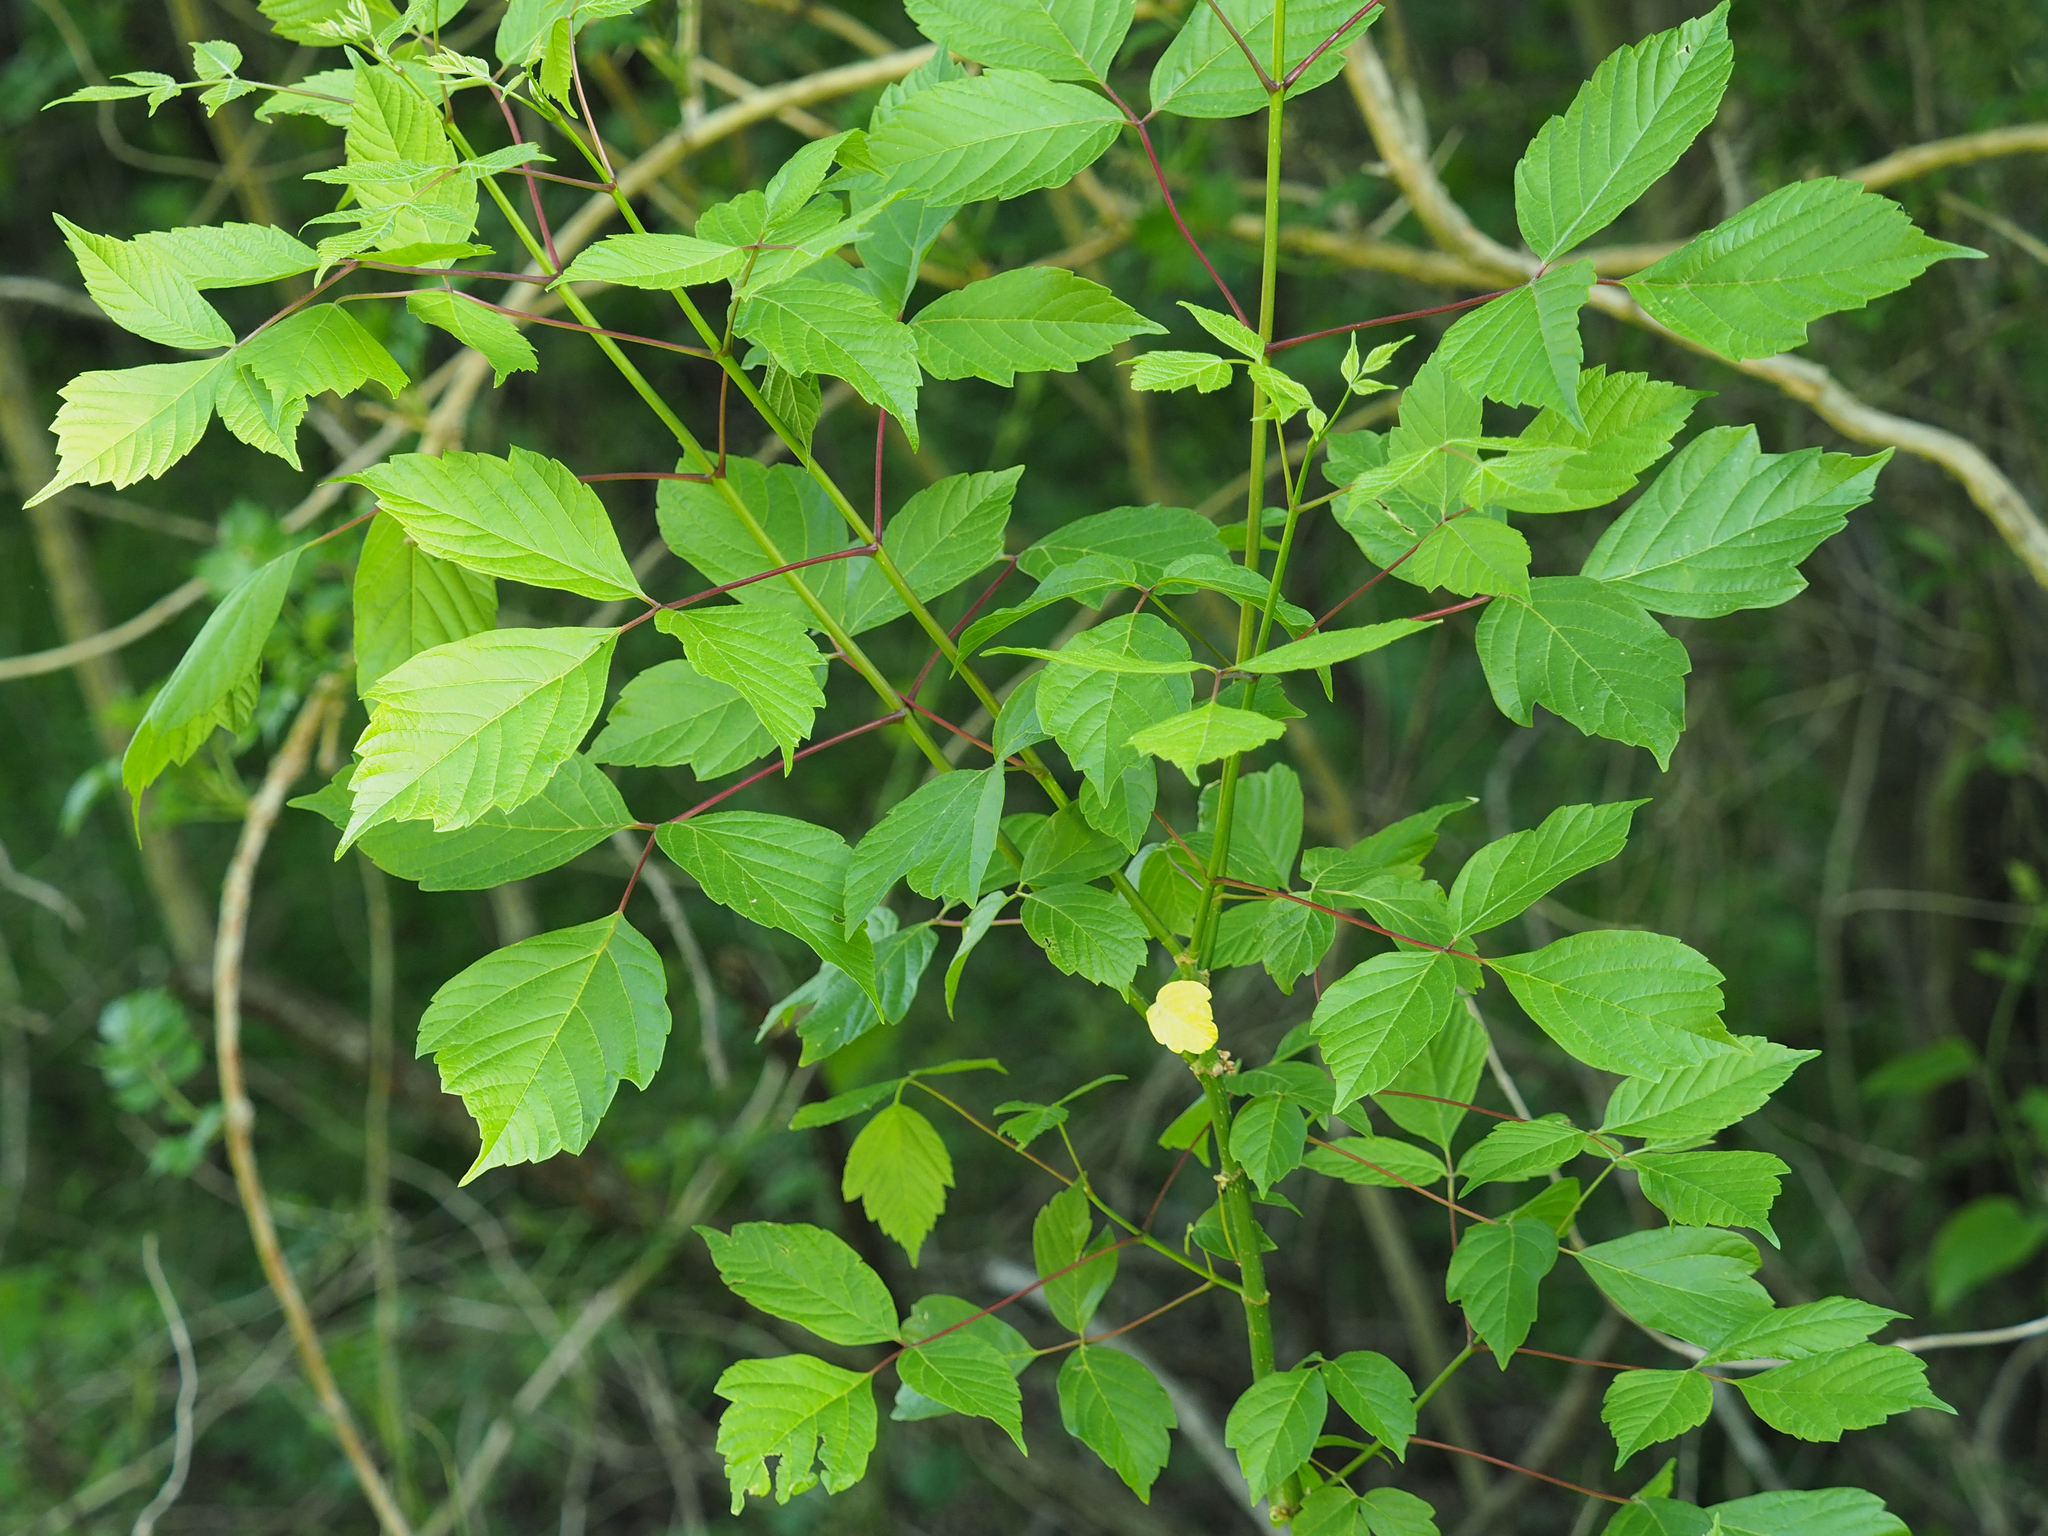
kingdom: Plantae
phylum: Tracheophyta
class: Magnoliopsida
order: Sapindales
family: Sapindaceae
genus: Acer
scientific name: Acer negundo
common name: Ashleaf maple
